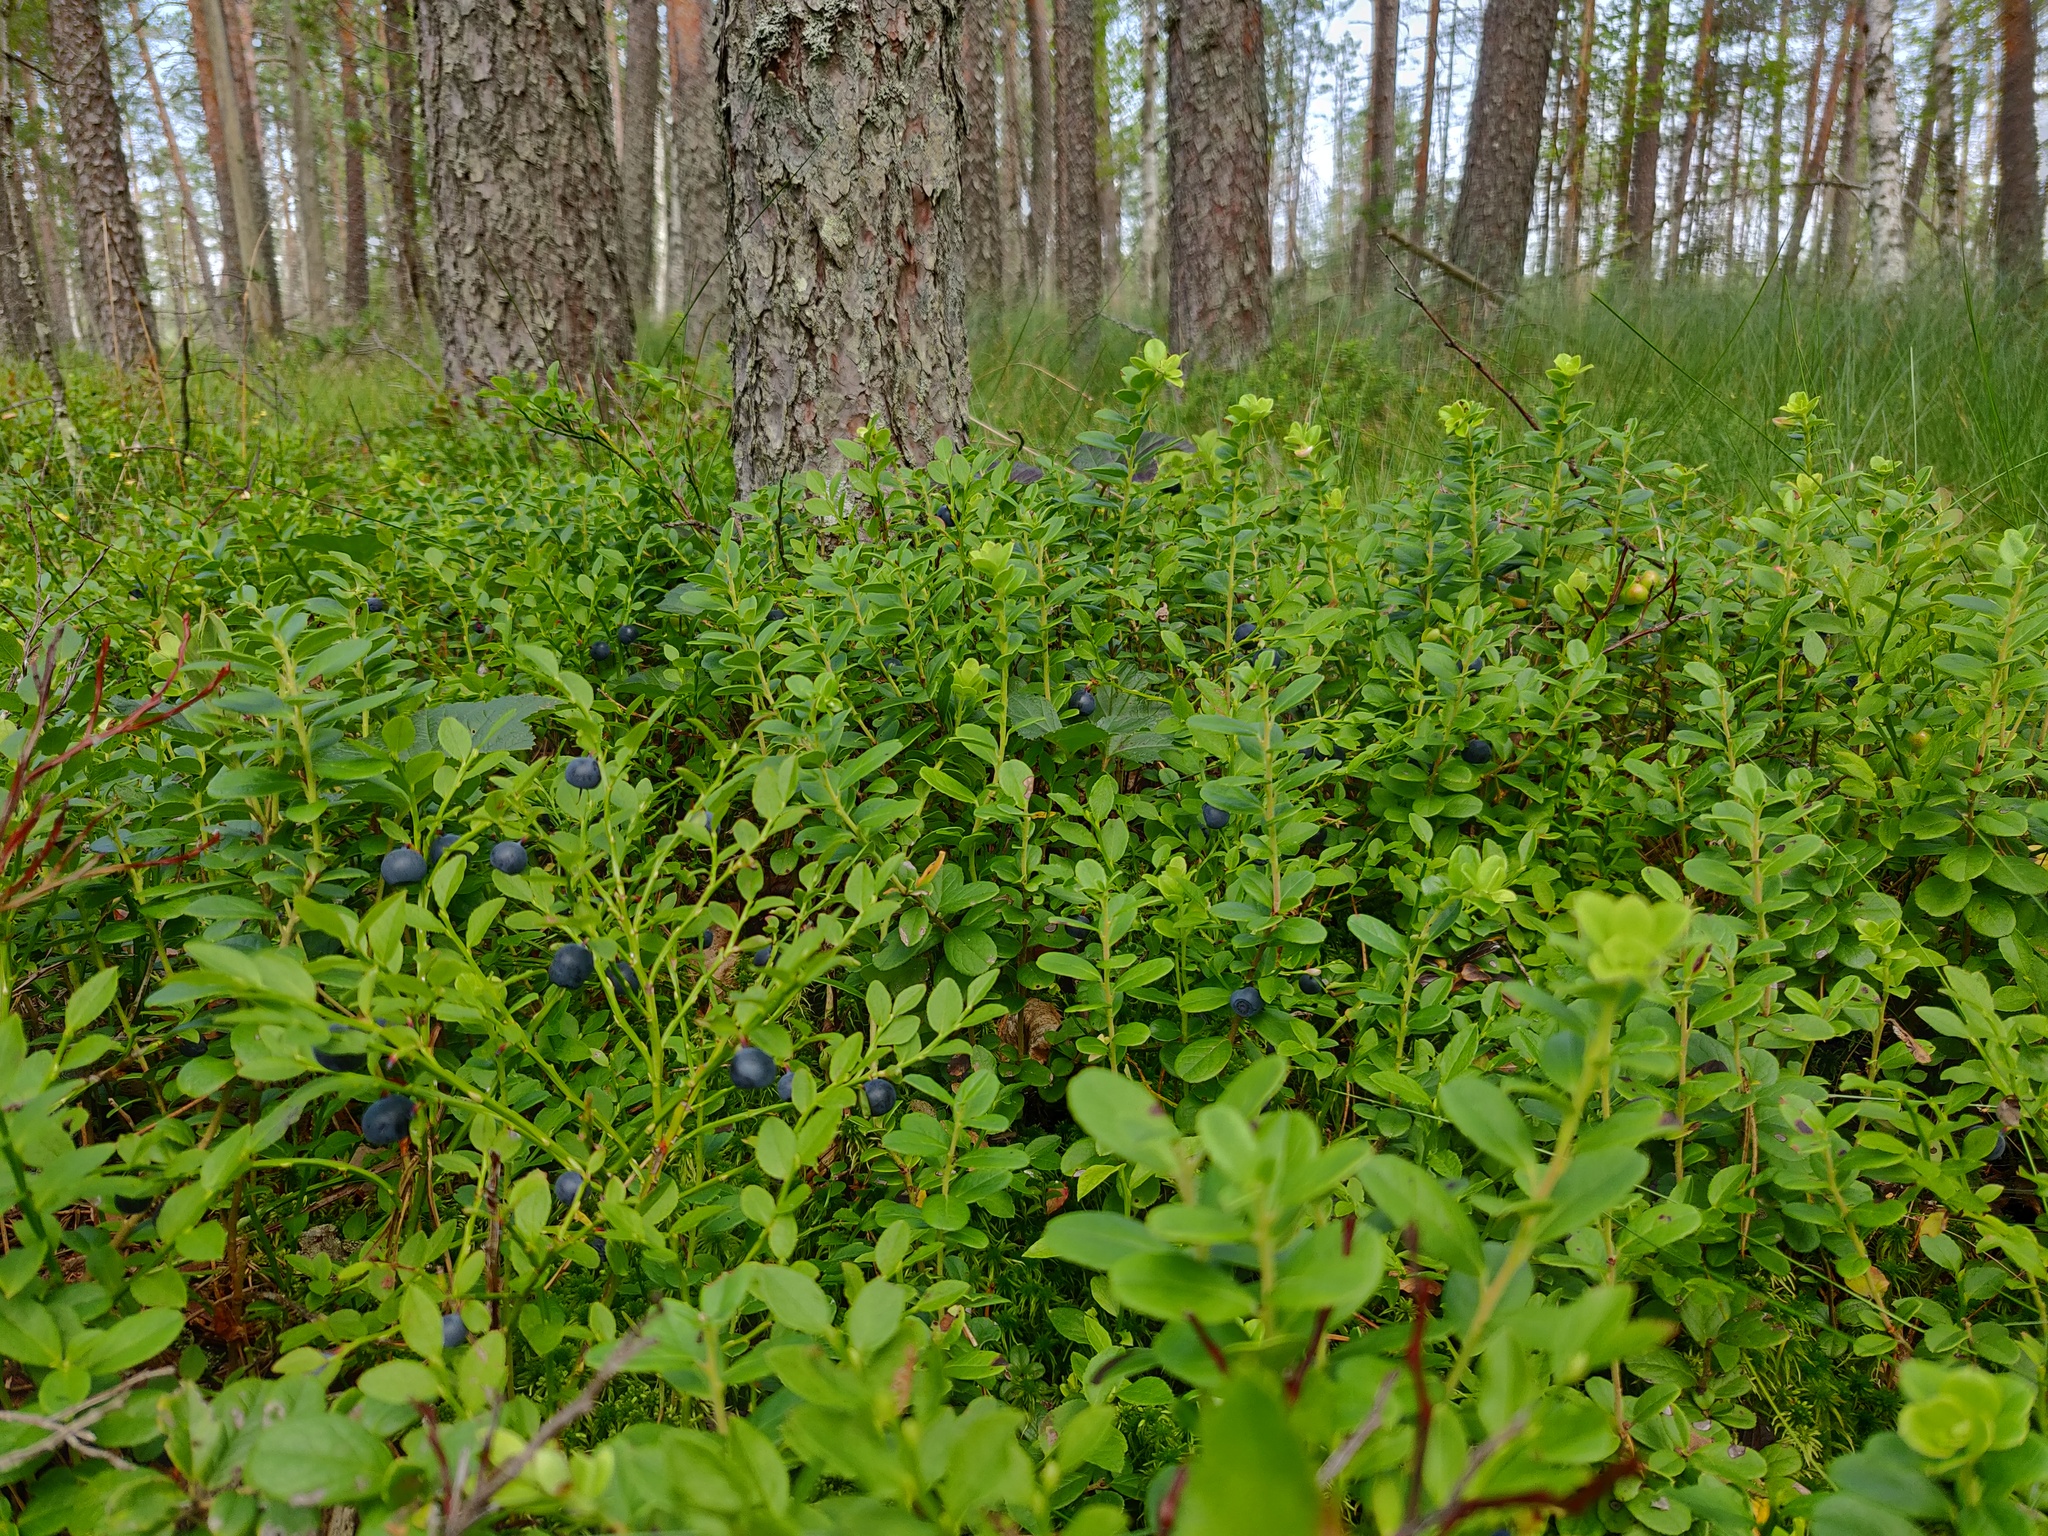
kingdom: Plantae
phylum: Tracheophyta
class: Magnoliopsida
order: Ericales
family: Ericaceae
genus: Vaccinium
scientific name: Vaccinium myrtillus
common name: Bilberry
